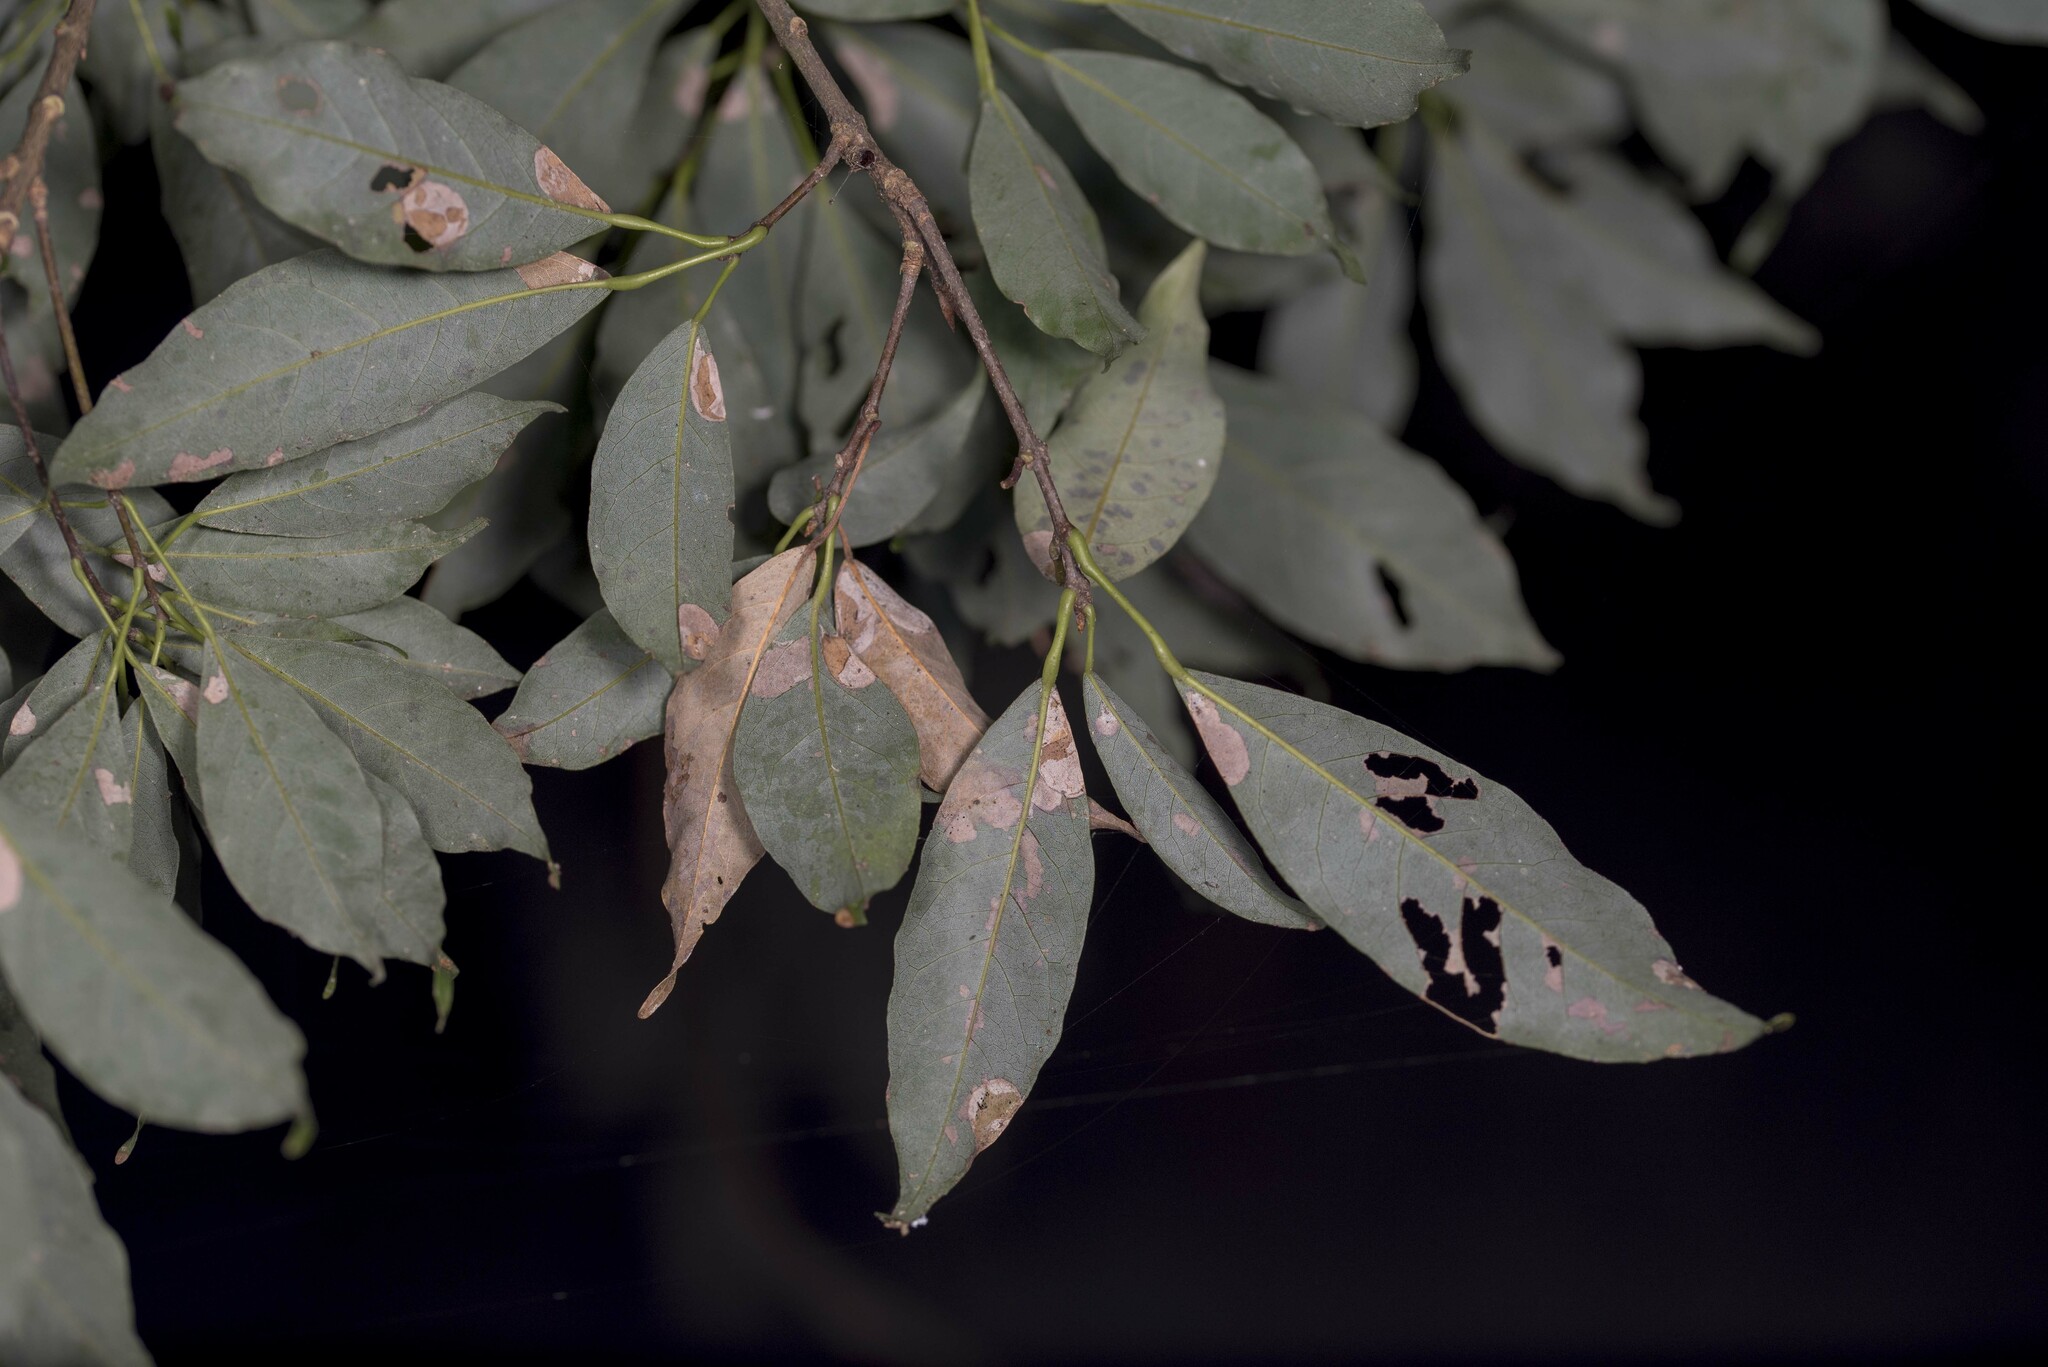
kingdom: Plantae
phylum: Tracheophyta
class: Magnoliopsida
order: Sapindales
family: Sapindaceae
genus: Acer
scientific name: Acer oblongum
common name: Himalayan maple
